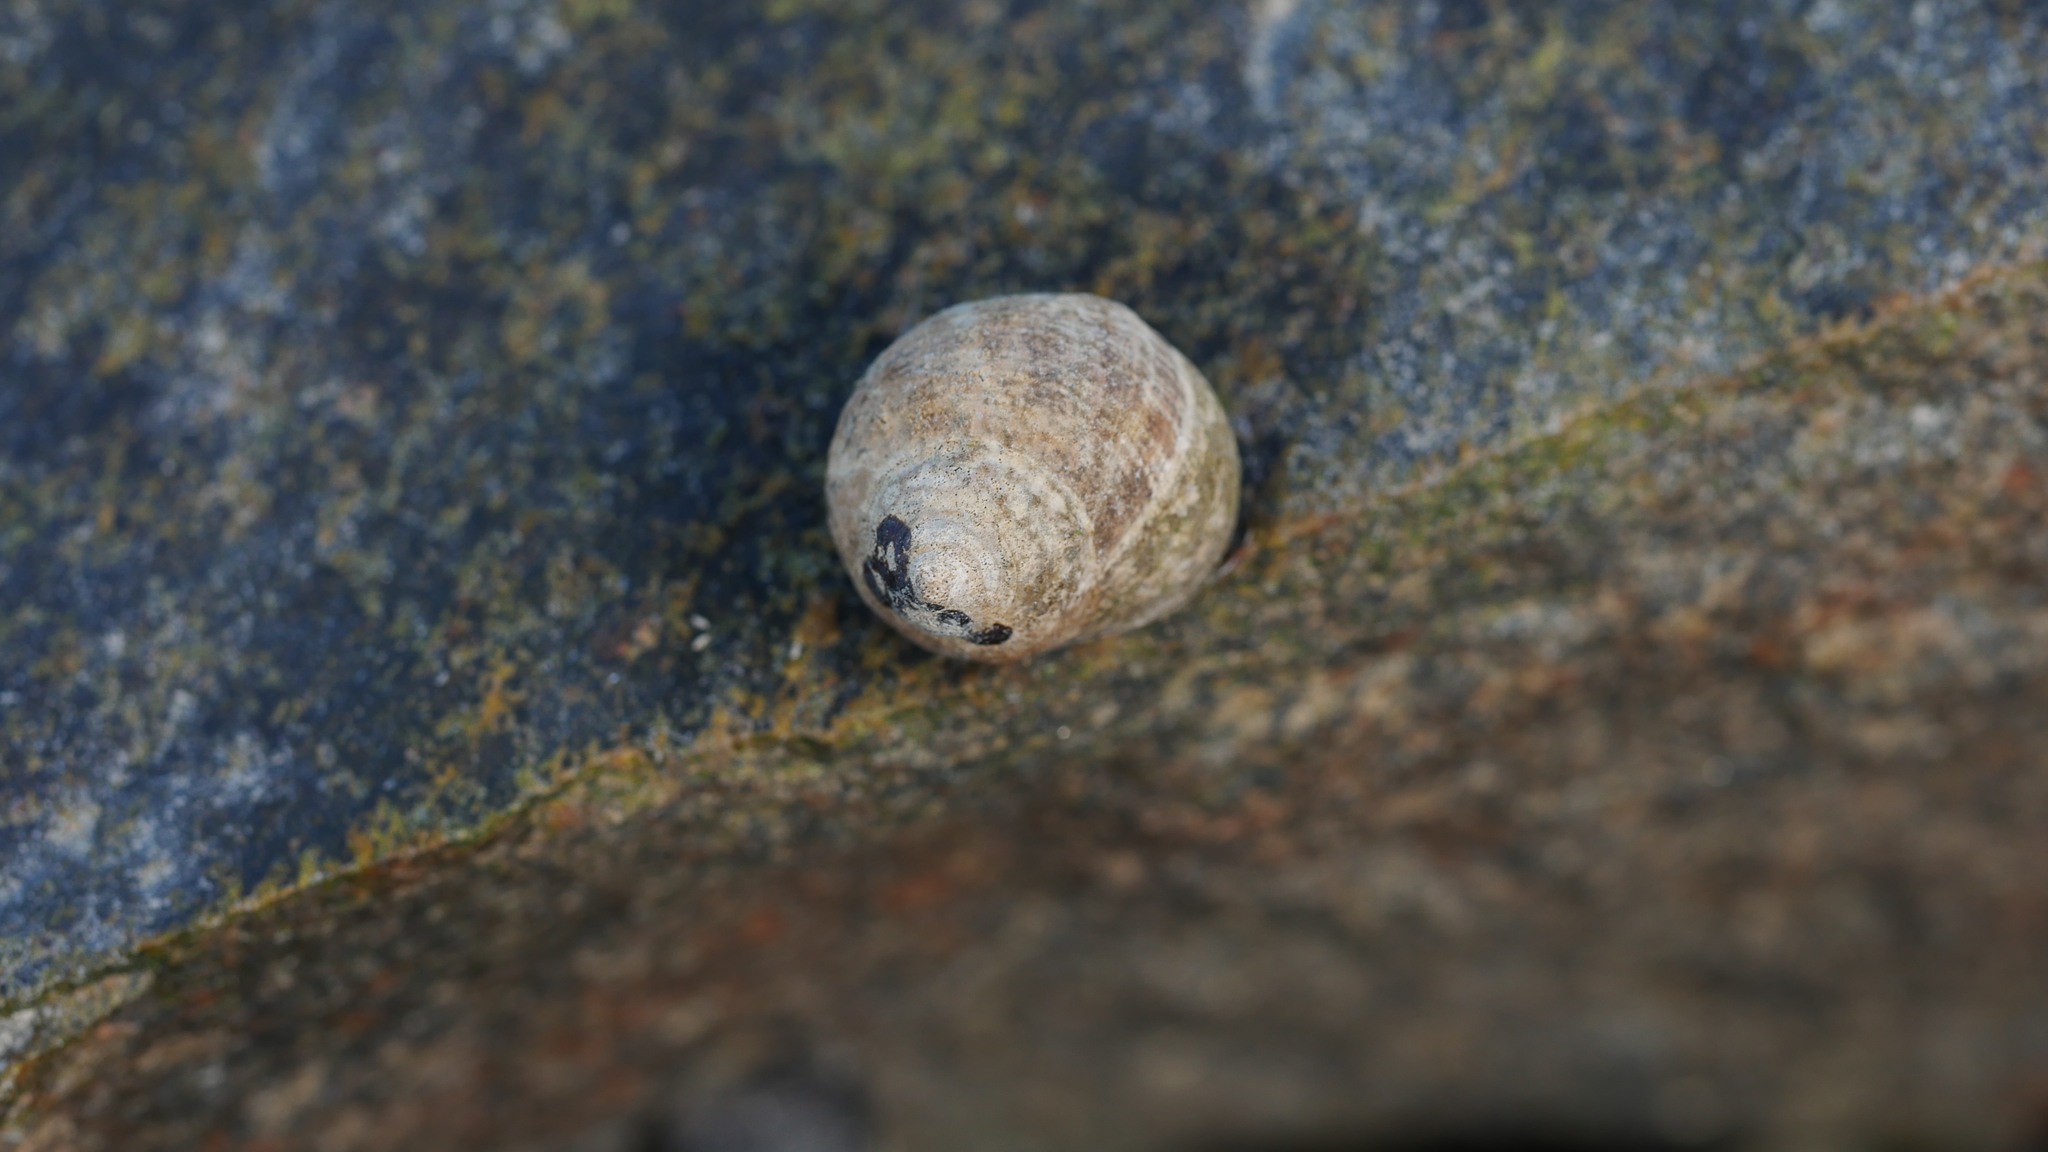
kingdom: Animalia
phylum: Mollusca
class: Gastropoda
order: Littorinimorpha
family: Littorinidae
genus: Littorina
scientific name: Littorina littorea
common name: Common periwinkle
